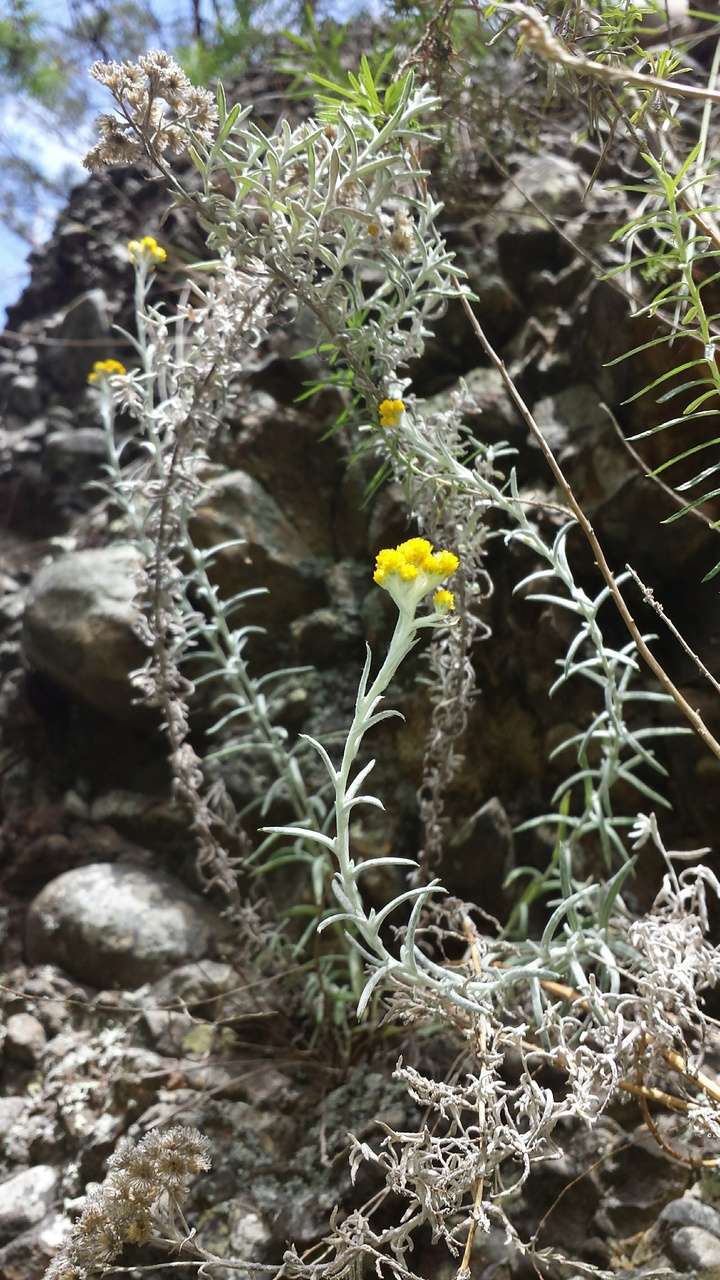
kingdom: Plantae
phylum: Tracheophyta
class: Magnoliopsida
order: Asterales
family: Asteraceae
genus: Chrysocephalum
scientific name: Chrysocephalum semipapposum
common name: Clustered everlasting
